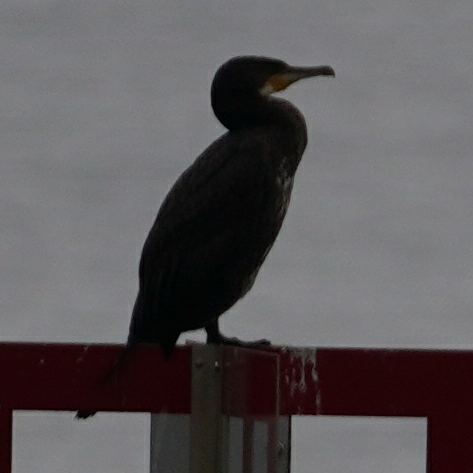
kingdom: Animalia
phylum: Chordata
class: Aves
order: Suliformes
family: Phalacrocoracidae
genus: Phalacrocorax
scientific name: Phalacrocorax carbo
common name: Great cormorant
